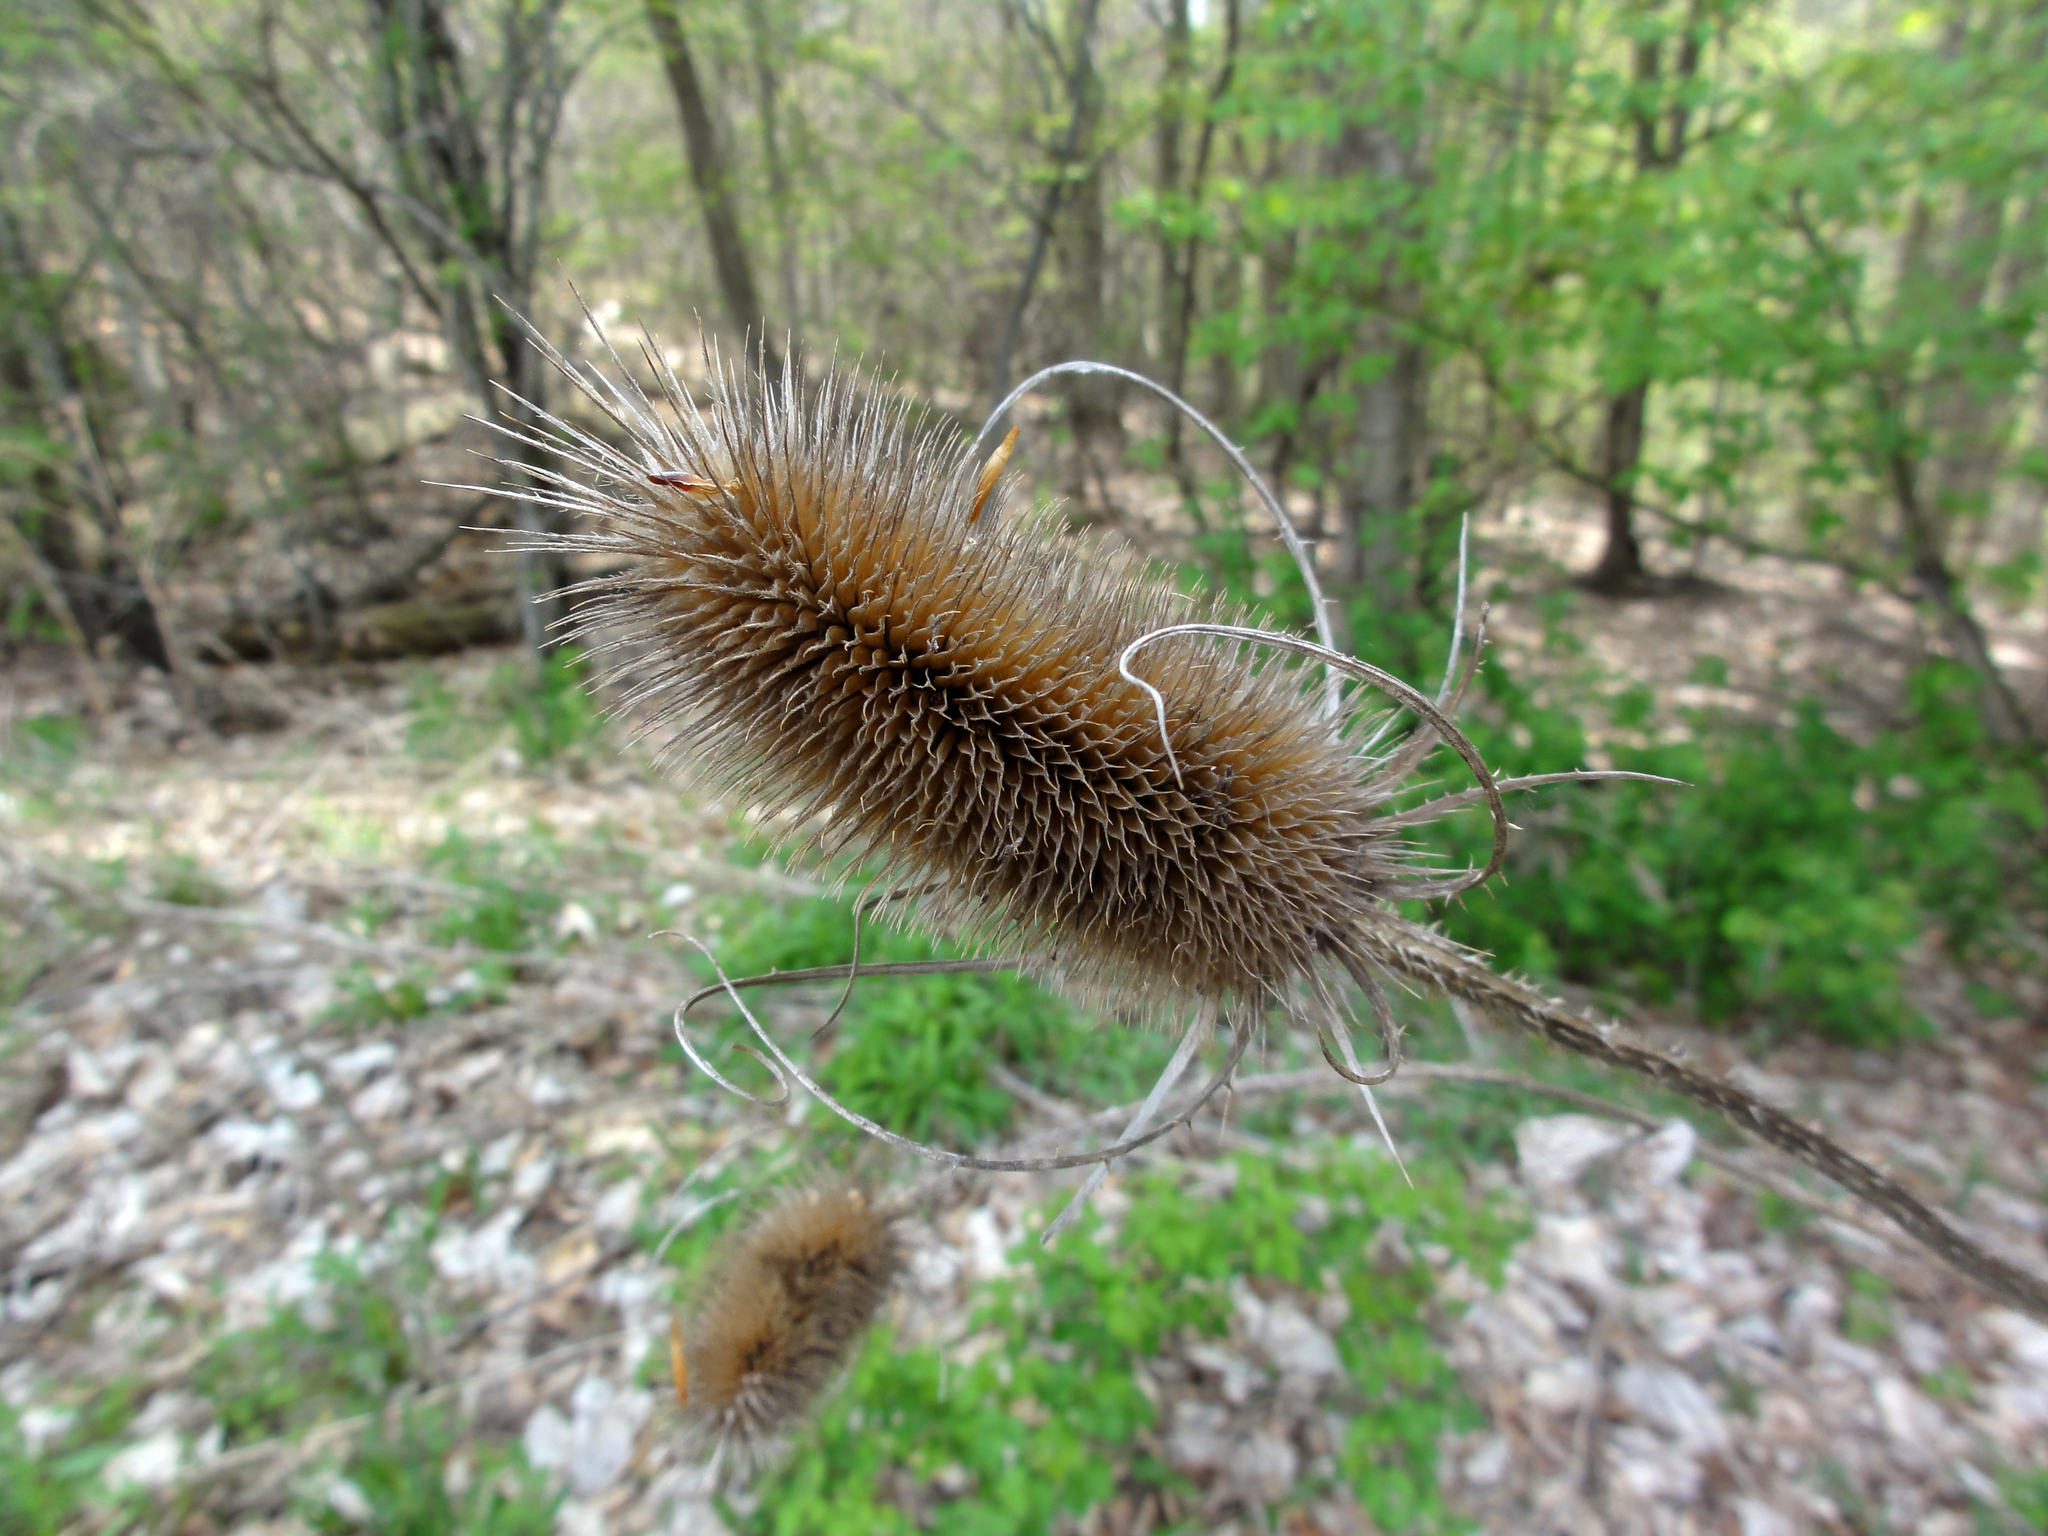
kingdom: Plantae
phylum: Tracheophyta
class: Magnoliopsida
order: Dipsacales
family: Caprifoliaceae
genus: Dipsacus
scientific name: Dipsacus fullonum
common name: Teasel
